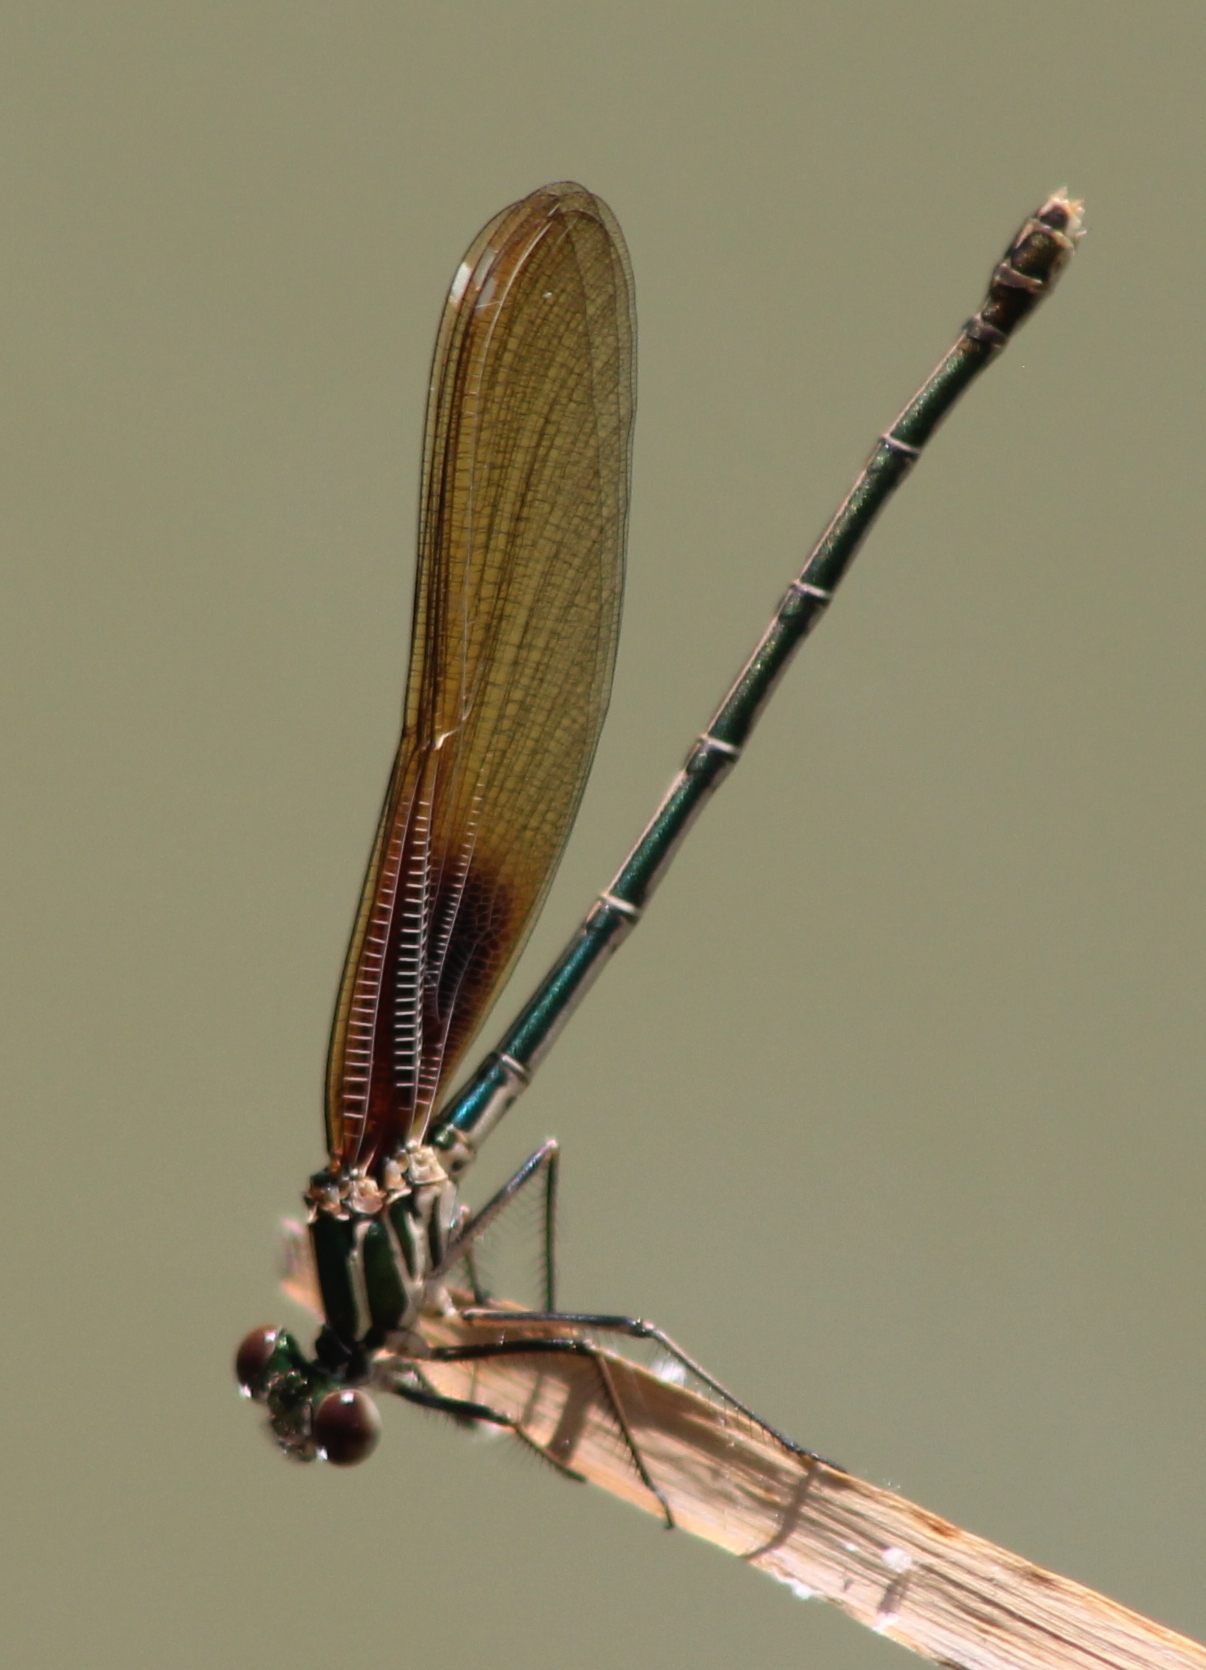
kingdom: Animalia
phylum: Arthropoda
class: Insecta
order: Odonata
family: Calopterygidae
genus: Hetaerina
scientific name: Hetaerina americana
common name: American rubyspot
